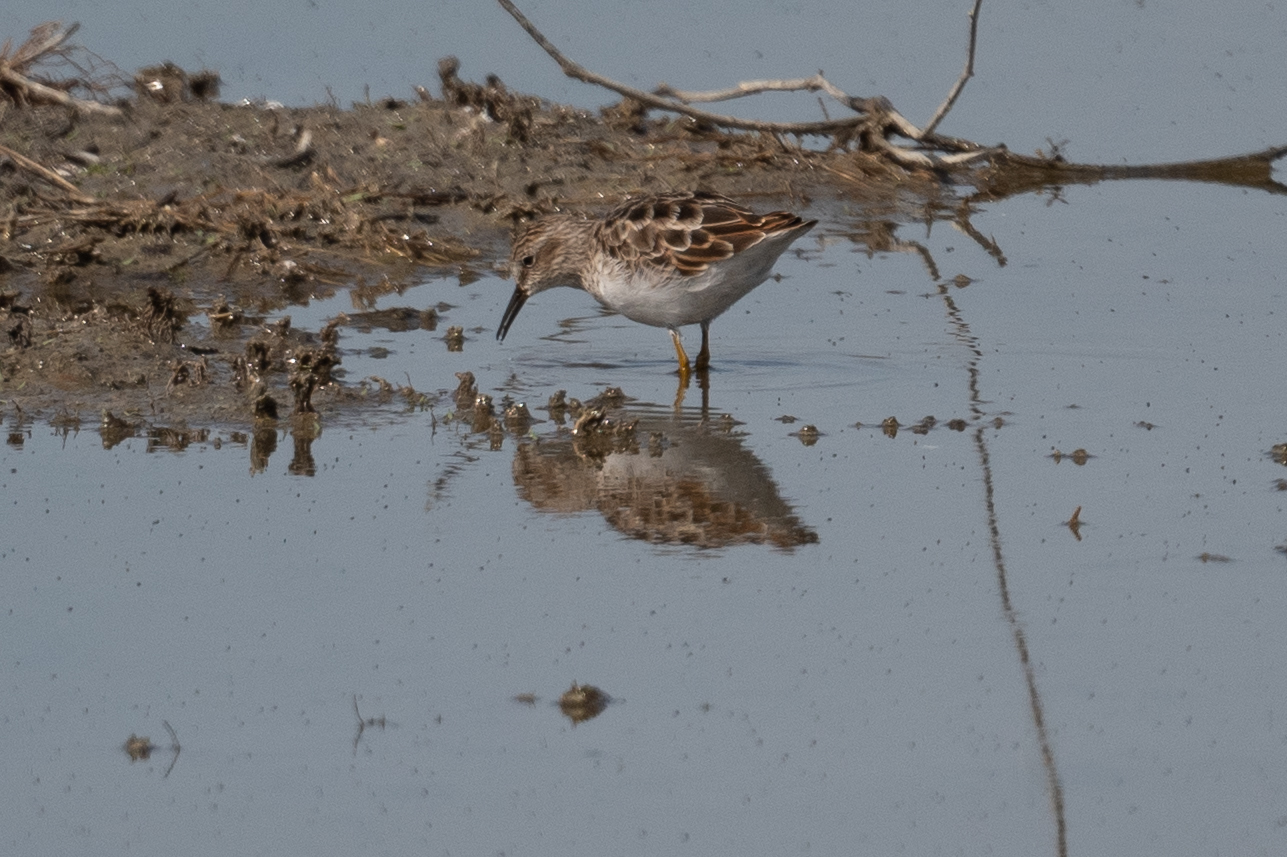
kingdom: Animalia
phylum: Chordata
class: Aves
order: Charadriiformes
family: Scolopacidae
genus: Calidris
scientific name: Calidris minutilla
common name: Least sandpiper
